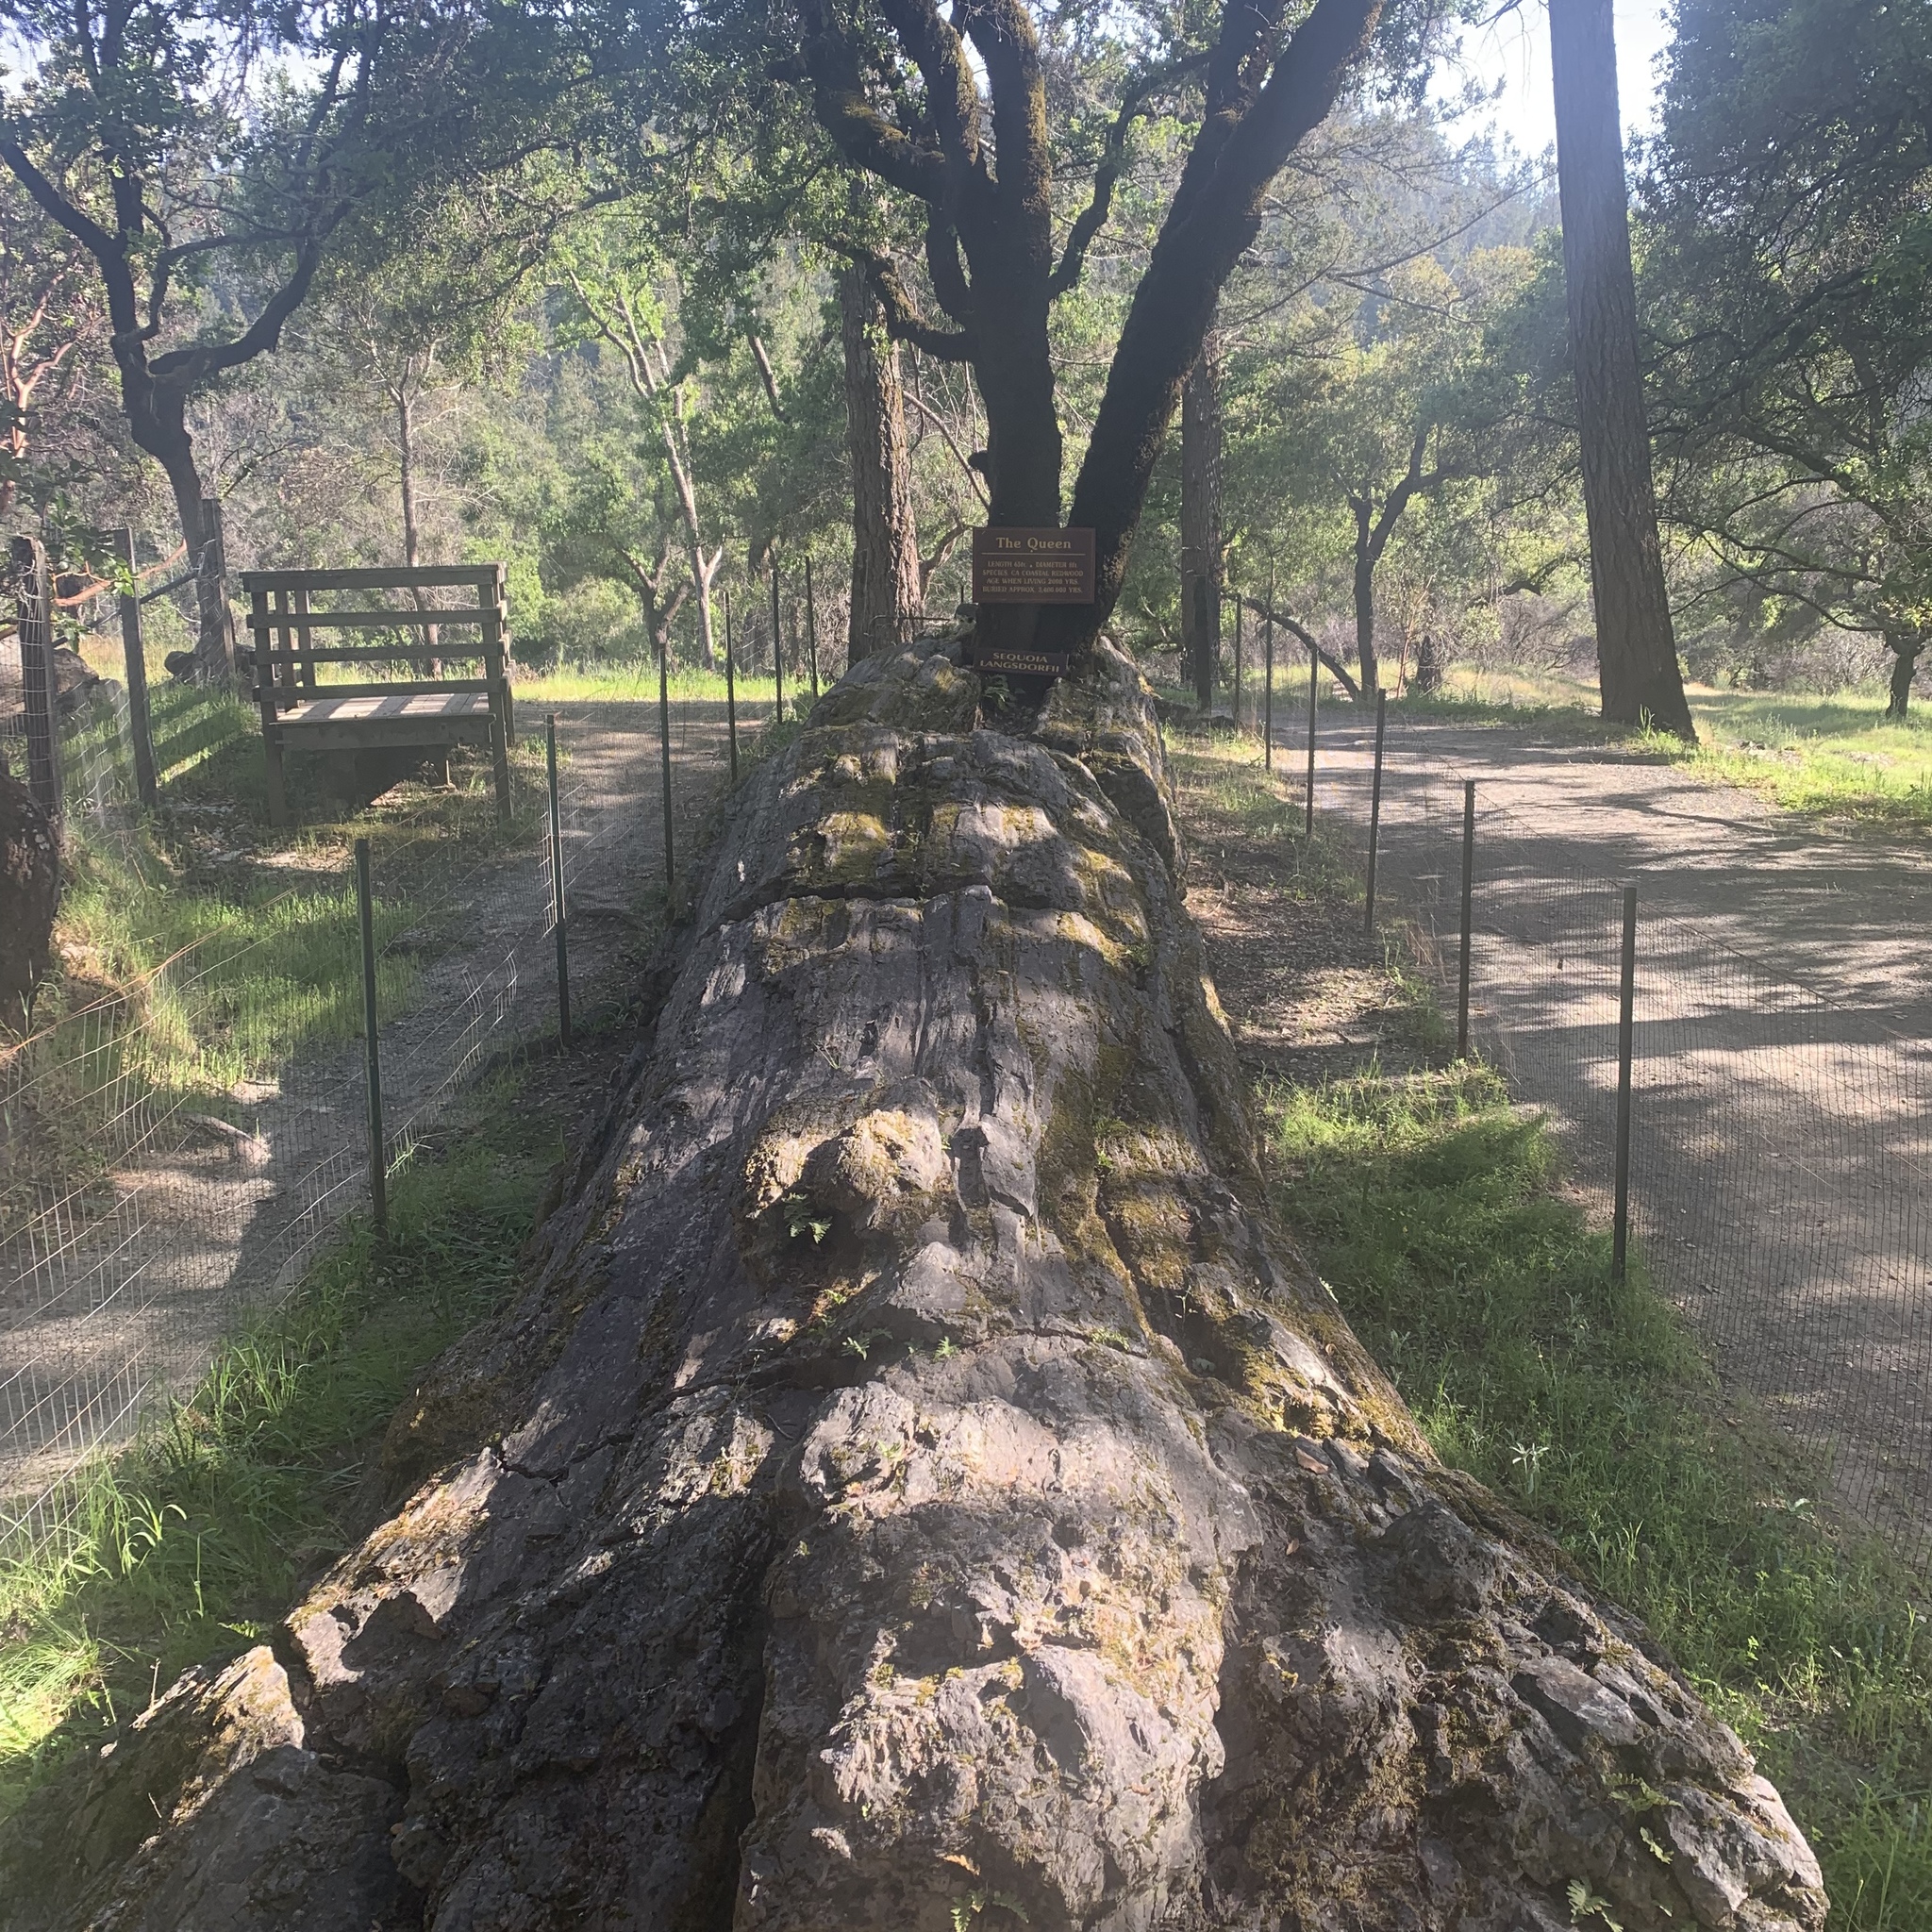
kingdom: Plantae
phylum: Tracheophyta
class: Pinopsida
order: Pinales
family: Cupressaceae
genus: Sequoia
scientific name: Sequoia
